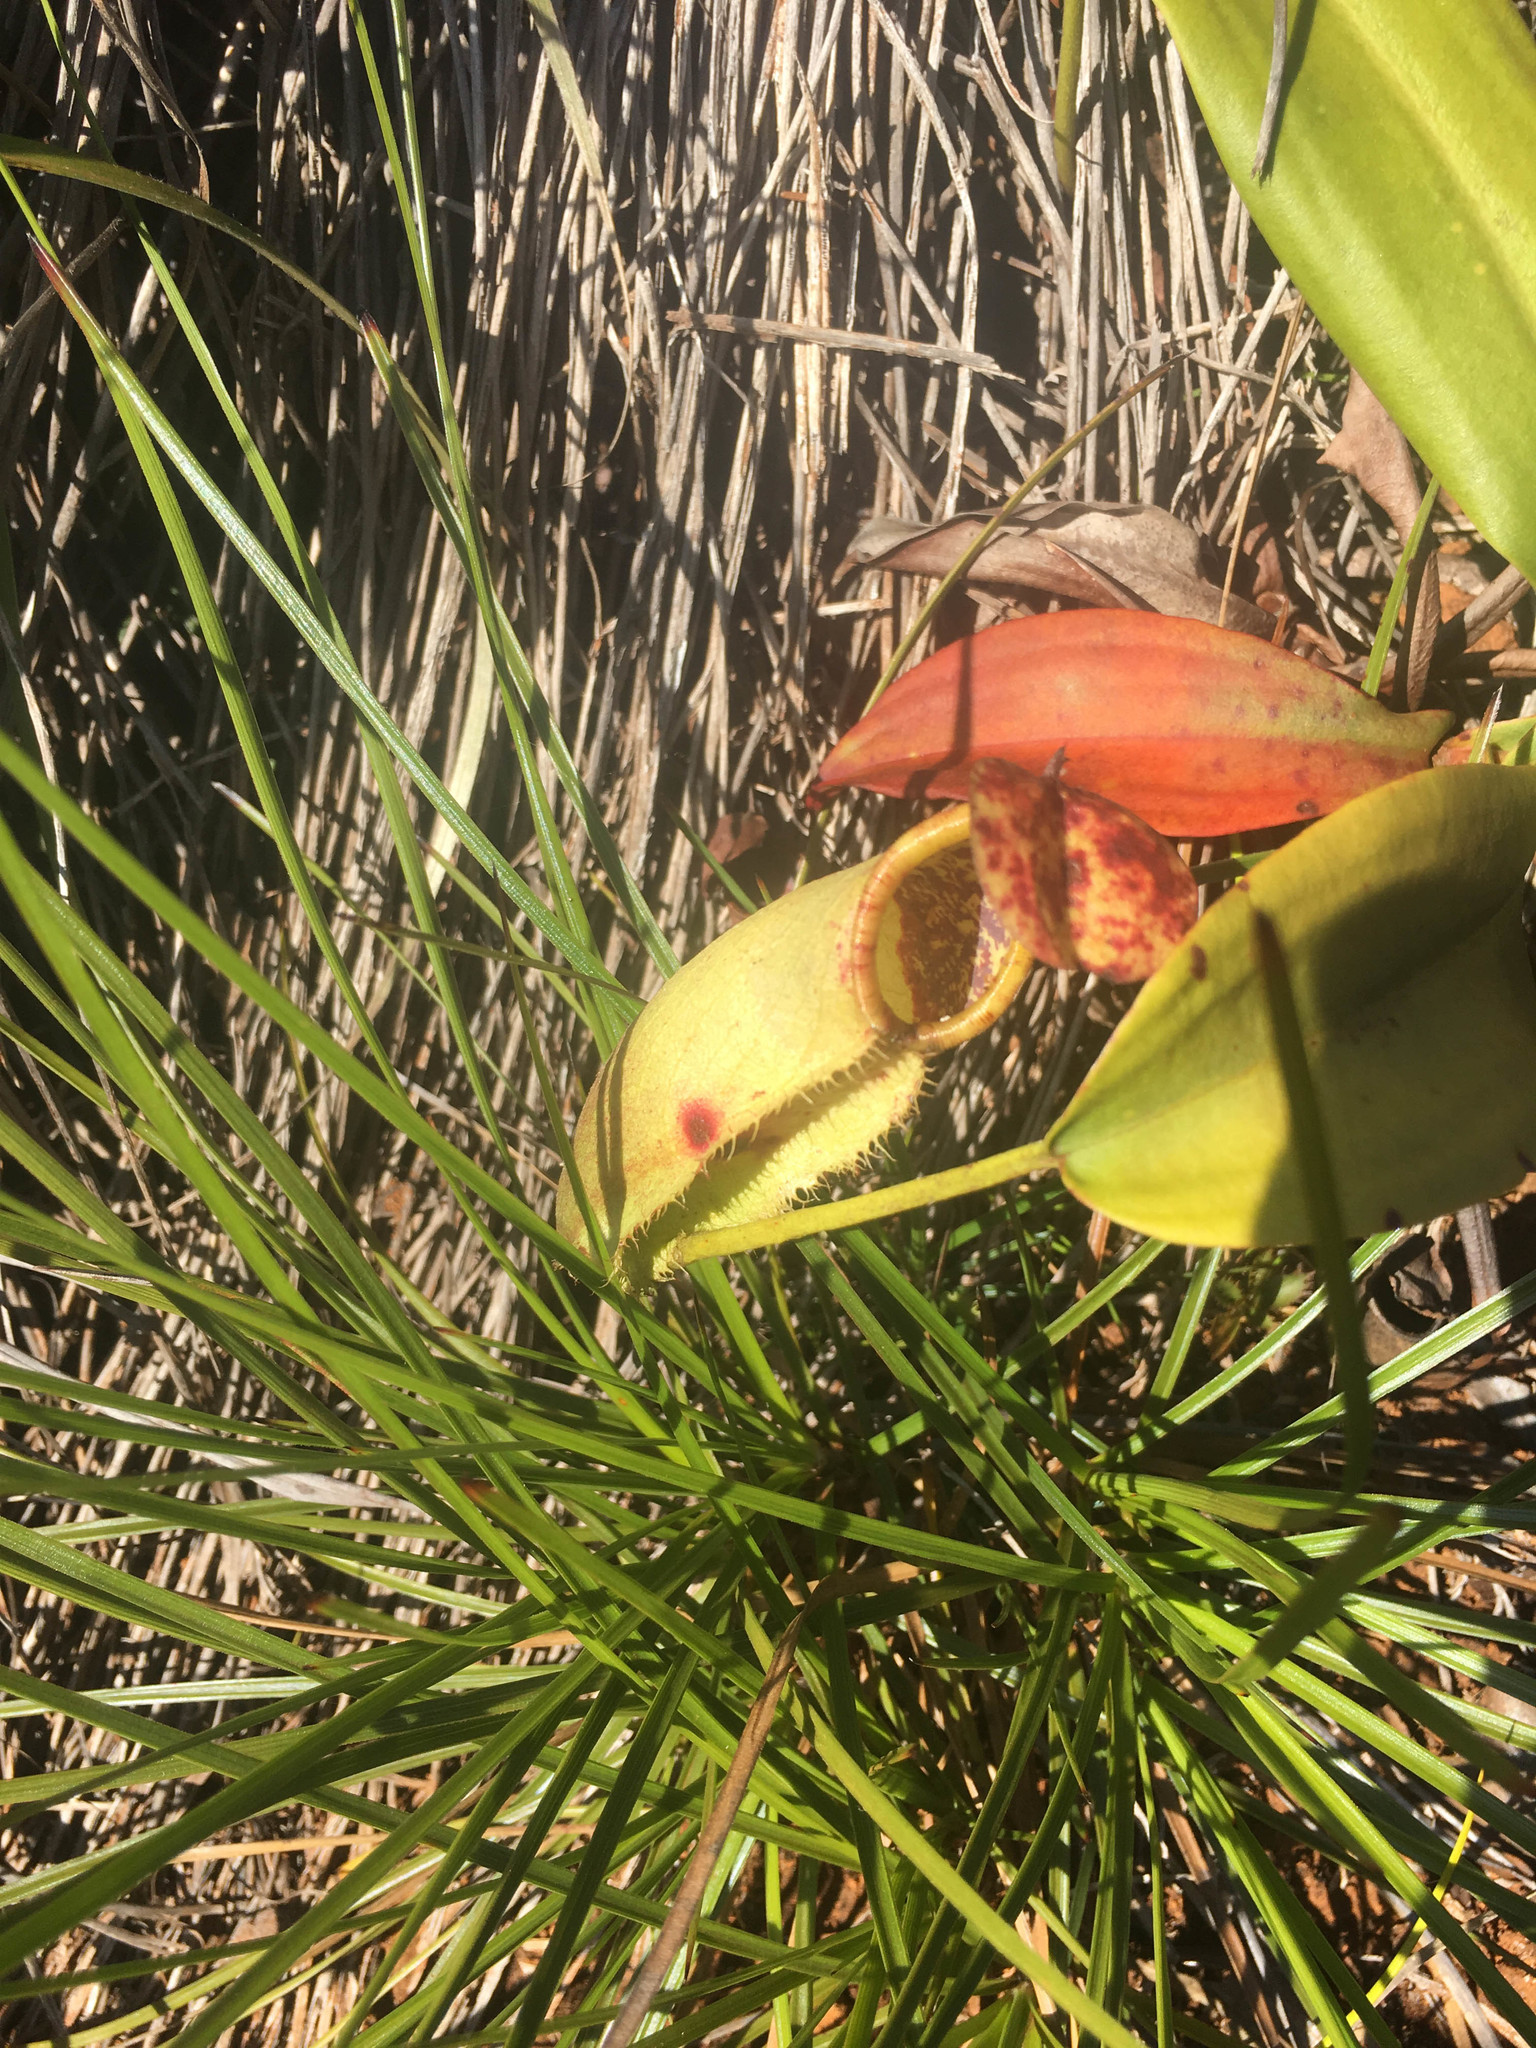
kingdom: Plantae
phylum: Tracheophyta
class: Magnoliopsida
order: Caryophyllales
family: Nepenthaceae
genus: Nepenthes
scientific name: Nepenthes vieillardii
